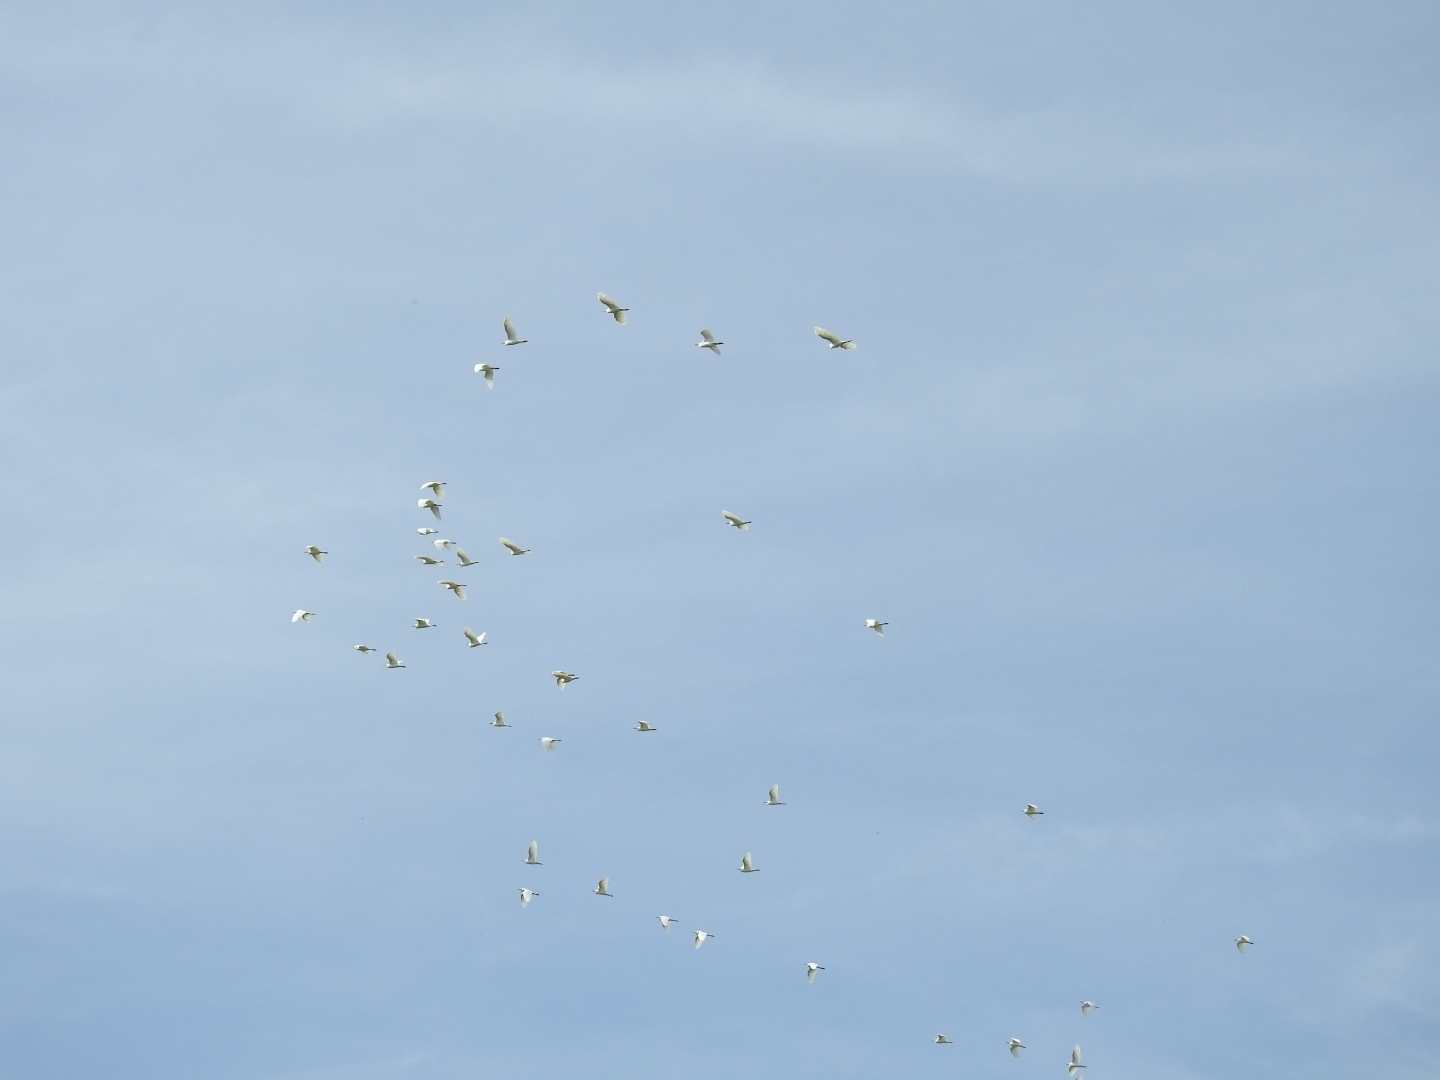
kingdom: Animalia
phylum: Chordata
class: Aves
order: Pelecaniformes
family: Ardeidae
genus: Bubulcus
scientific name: Bubulcus ibis
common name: Cattle egret
